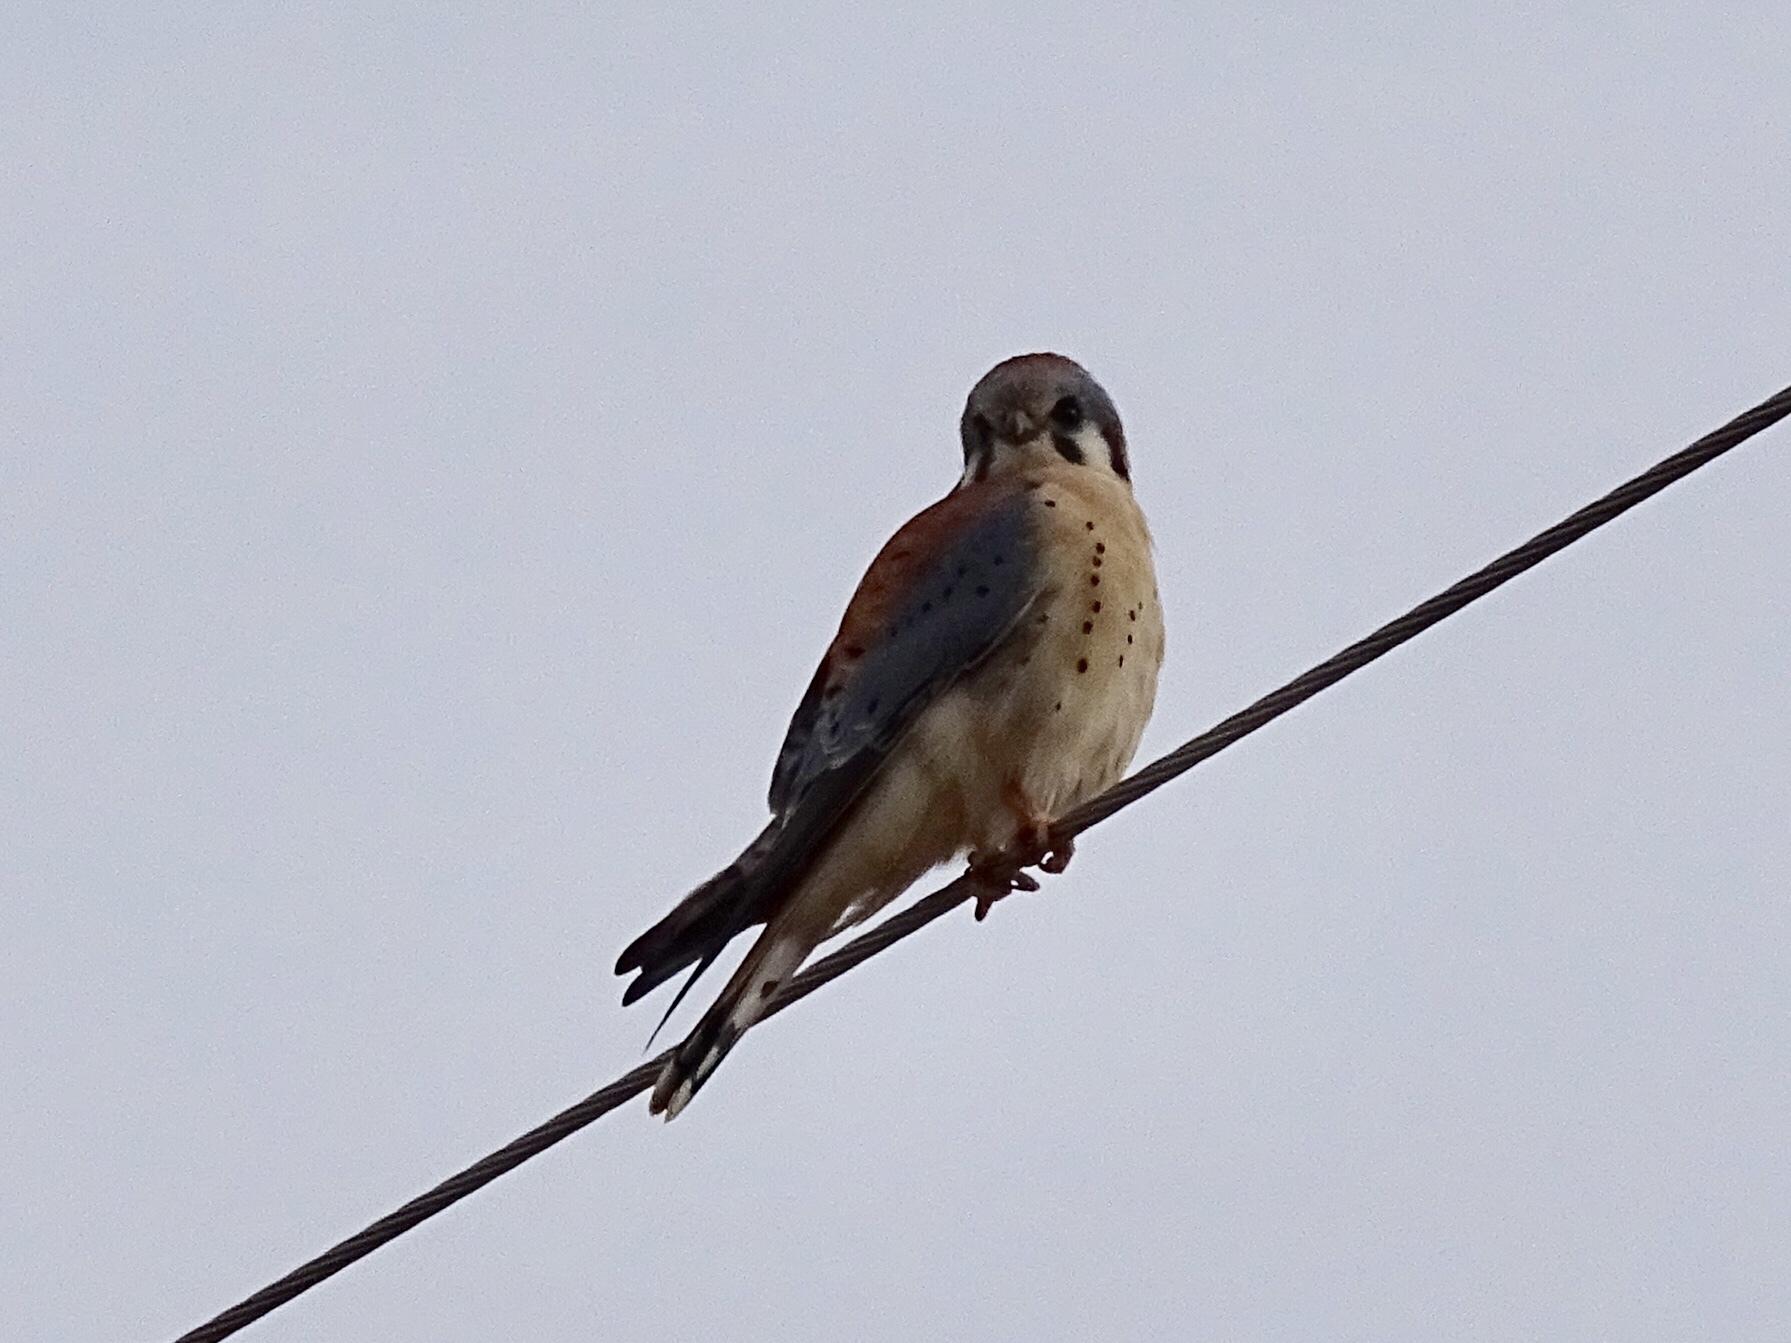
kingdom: Animalia
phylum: Chordata
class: Aves
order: Falconiformes
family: Falconidae
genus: Falco
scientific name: Falco sparverius
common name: American kestrel
